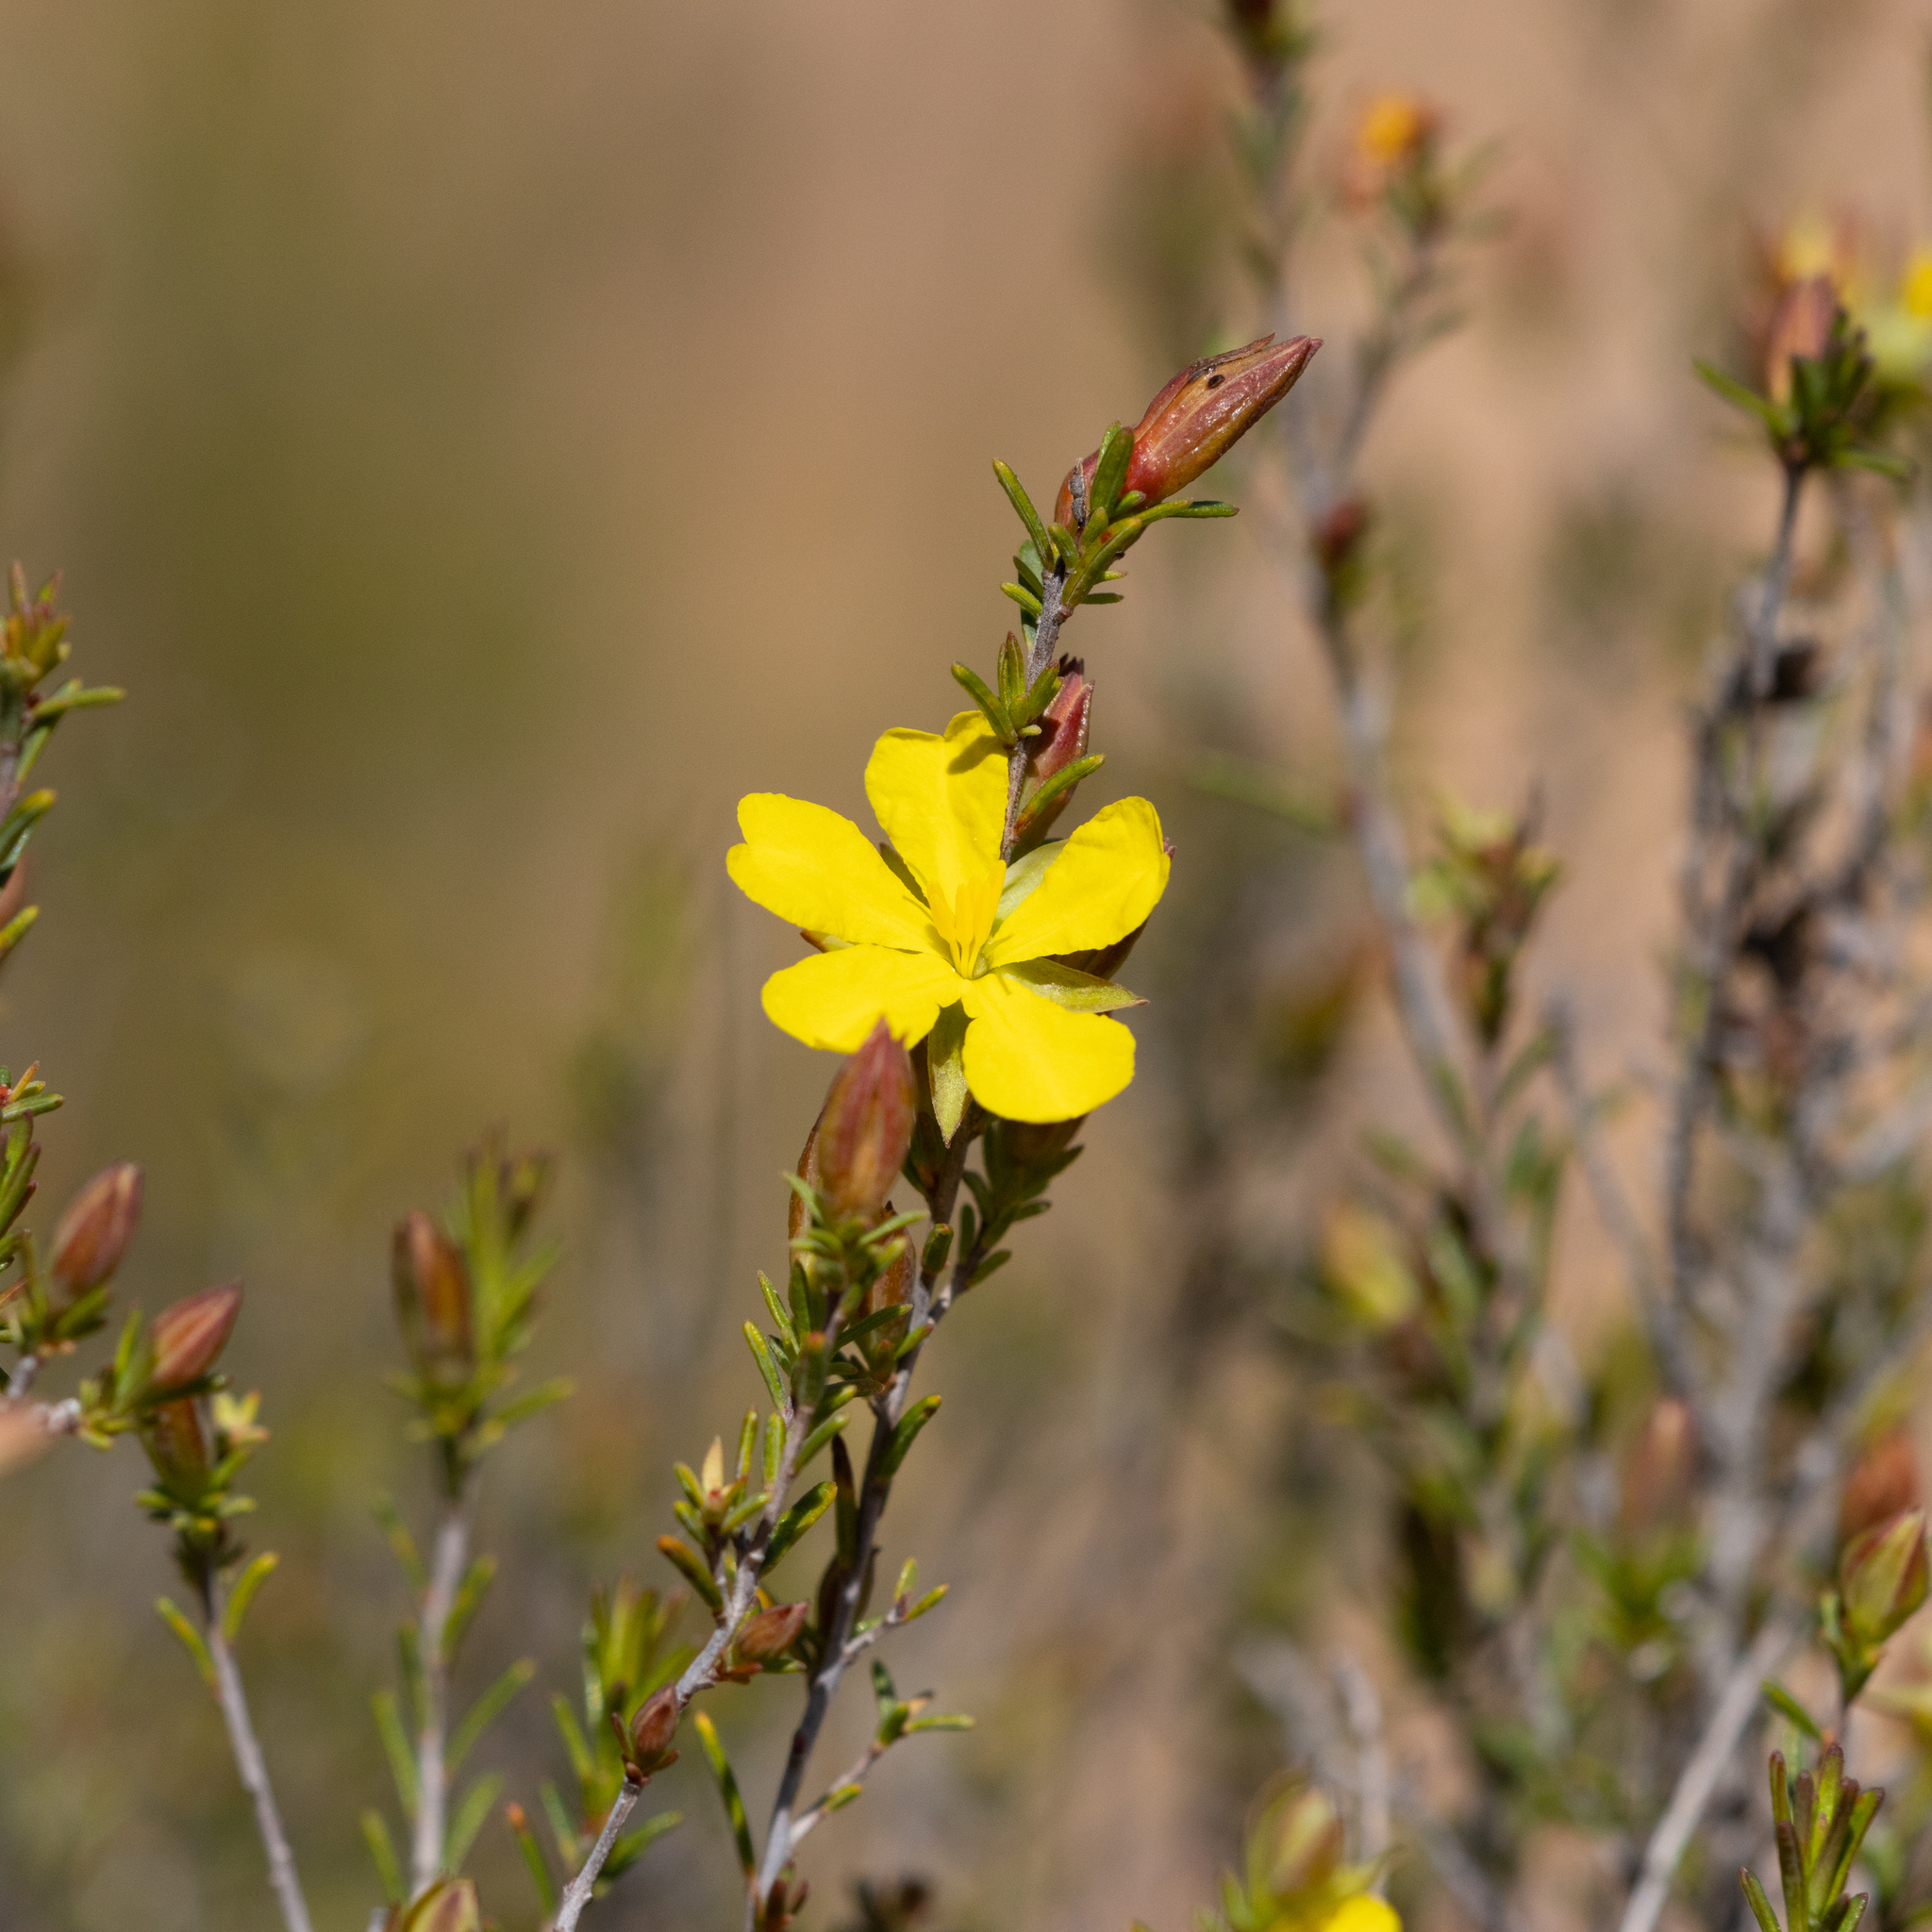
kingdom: Plantae
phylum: Tracheophyta
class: Magnoliopsida
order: Dilleniales
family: Dilleniaceae
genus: Hibbertia
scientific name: Hibbertia devitata
